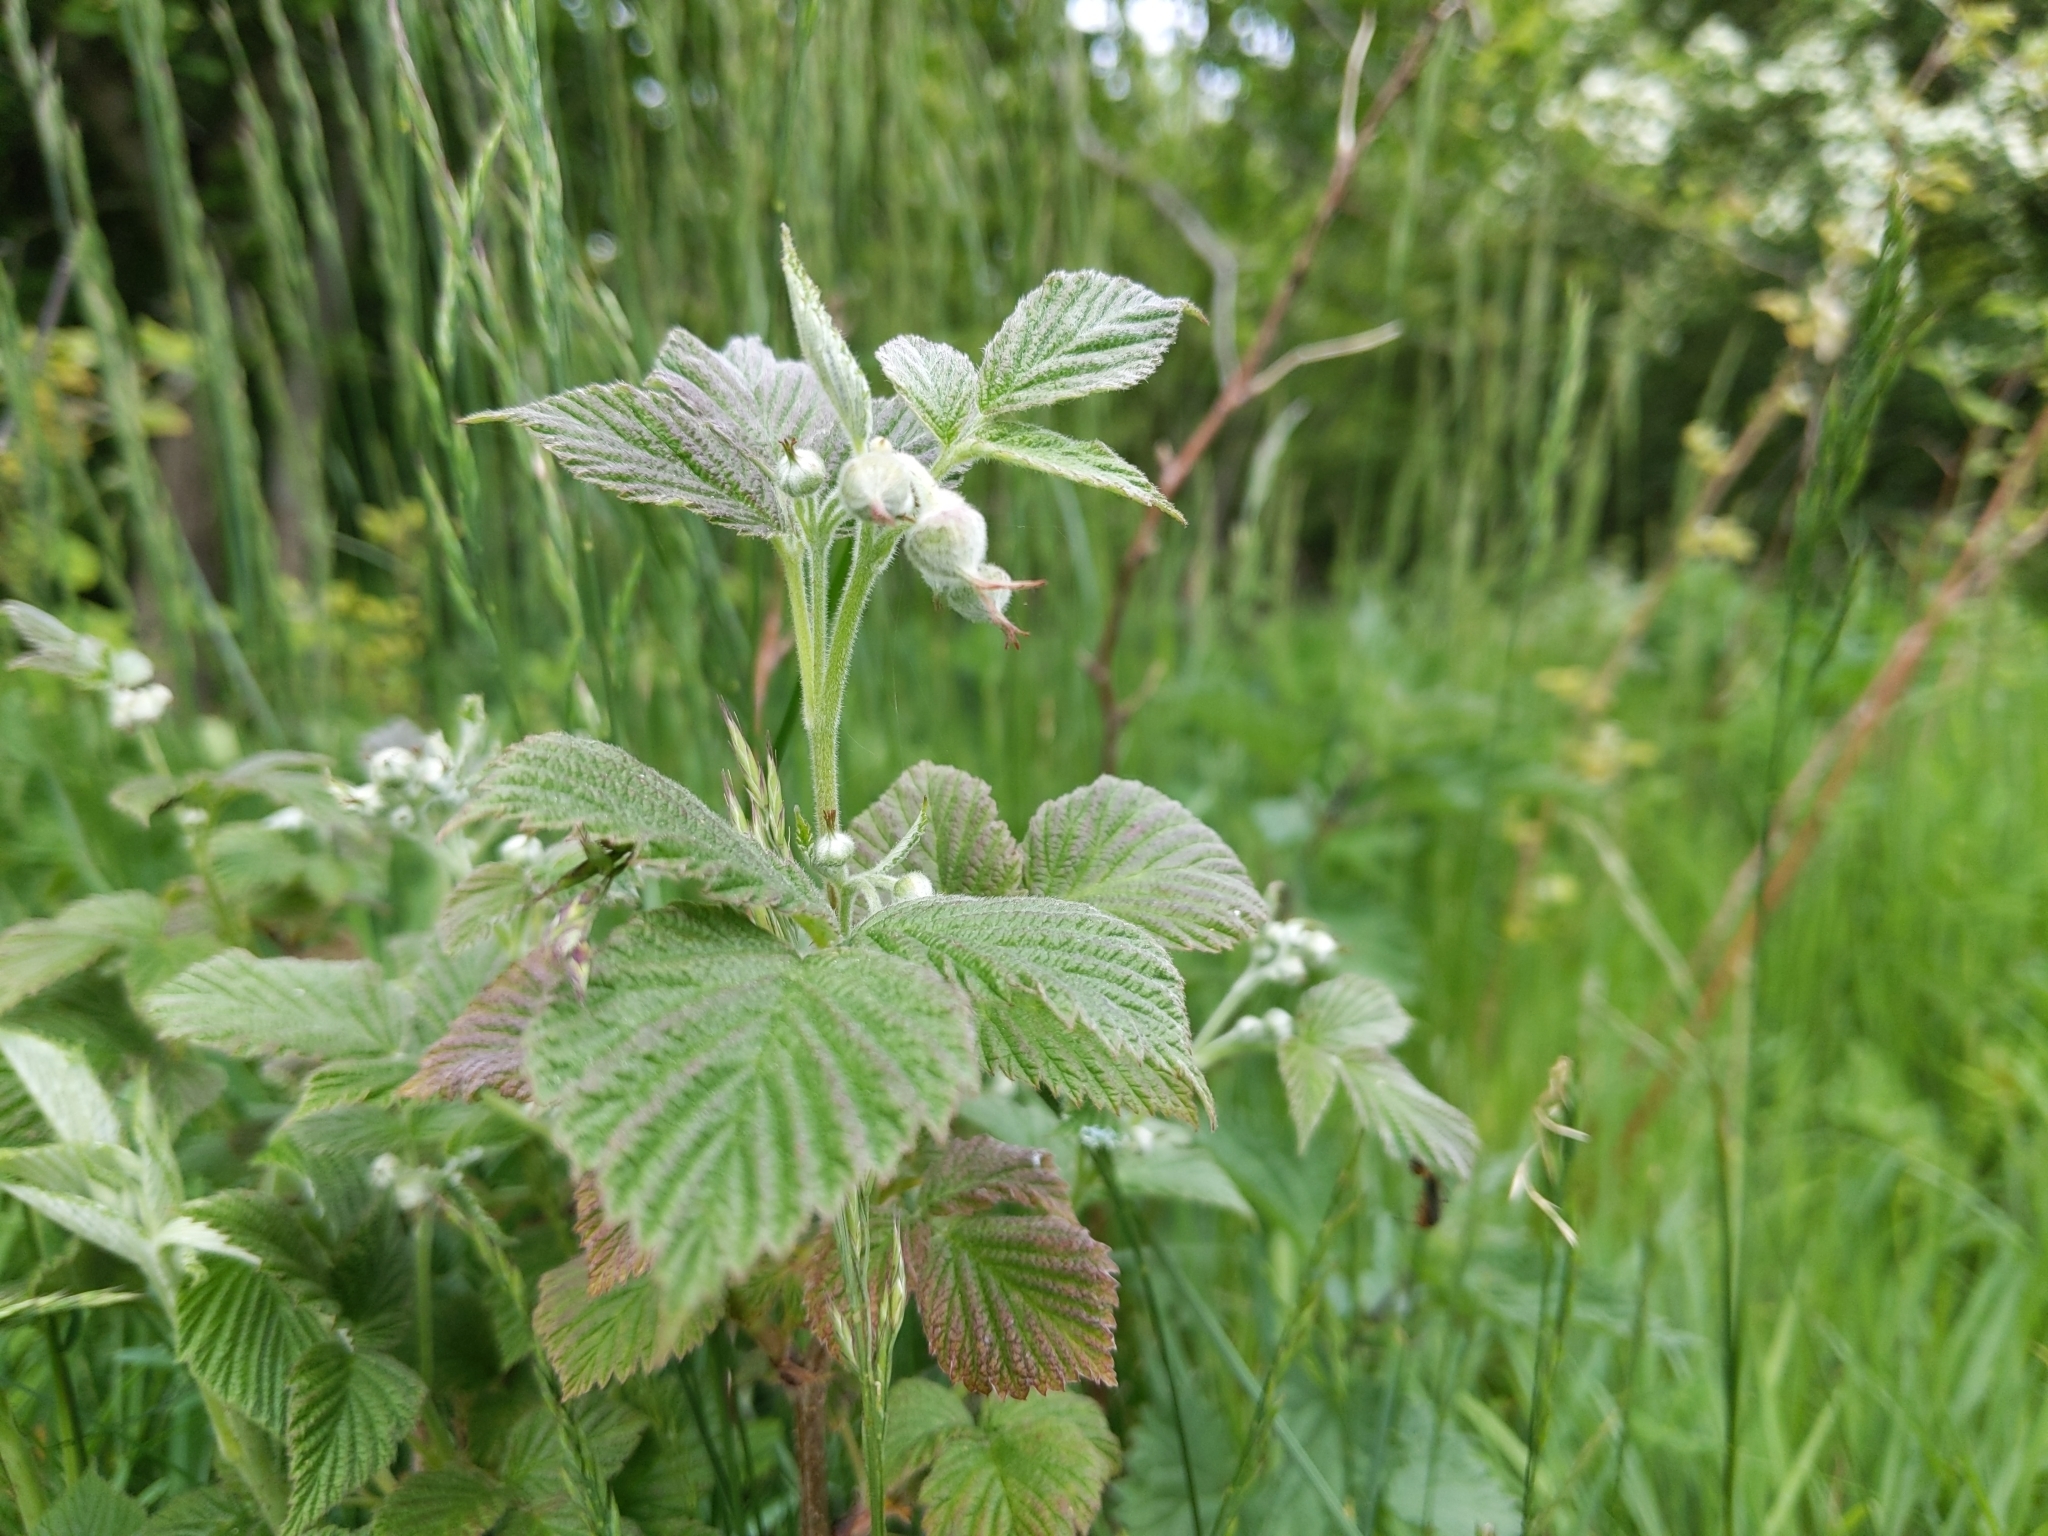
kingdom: Plantae
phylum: Tracheophyta
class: Magnoliopsida
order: Rosales
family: Rosaceae
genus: Rubus
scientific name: Rubus idaeus
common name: Raspberry
